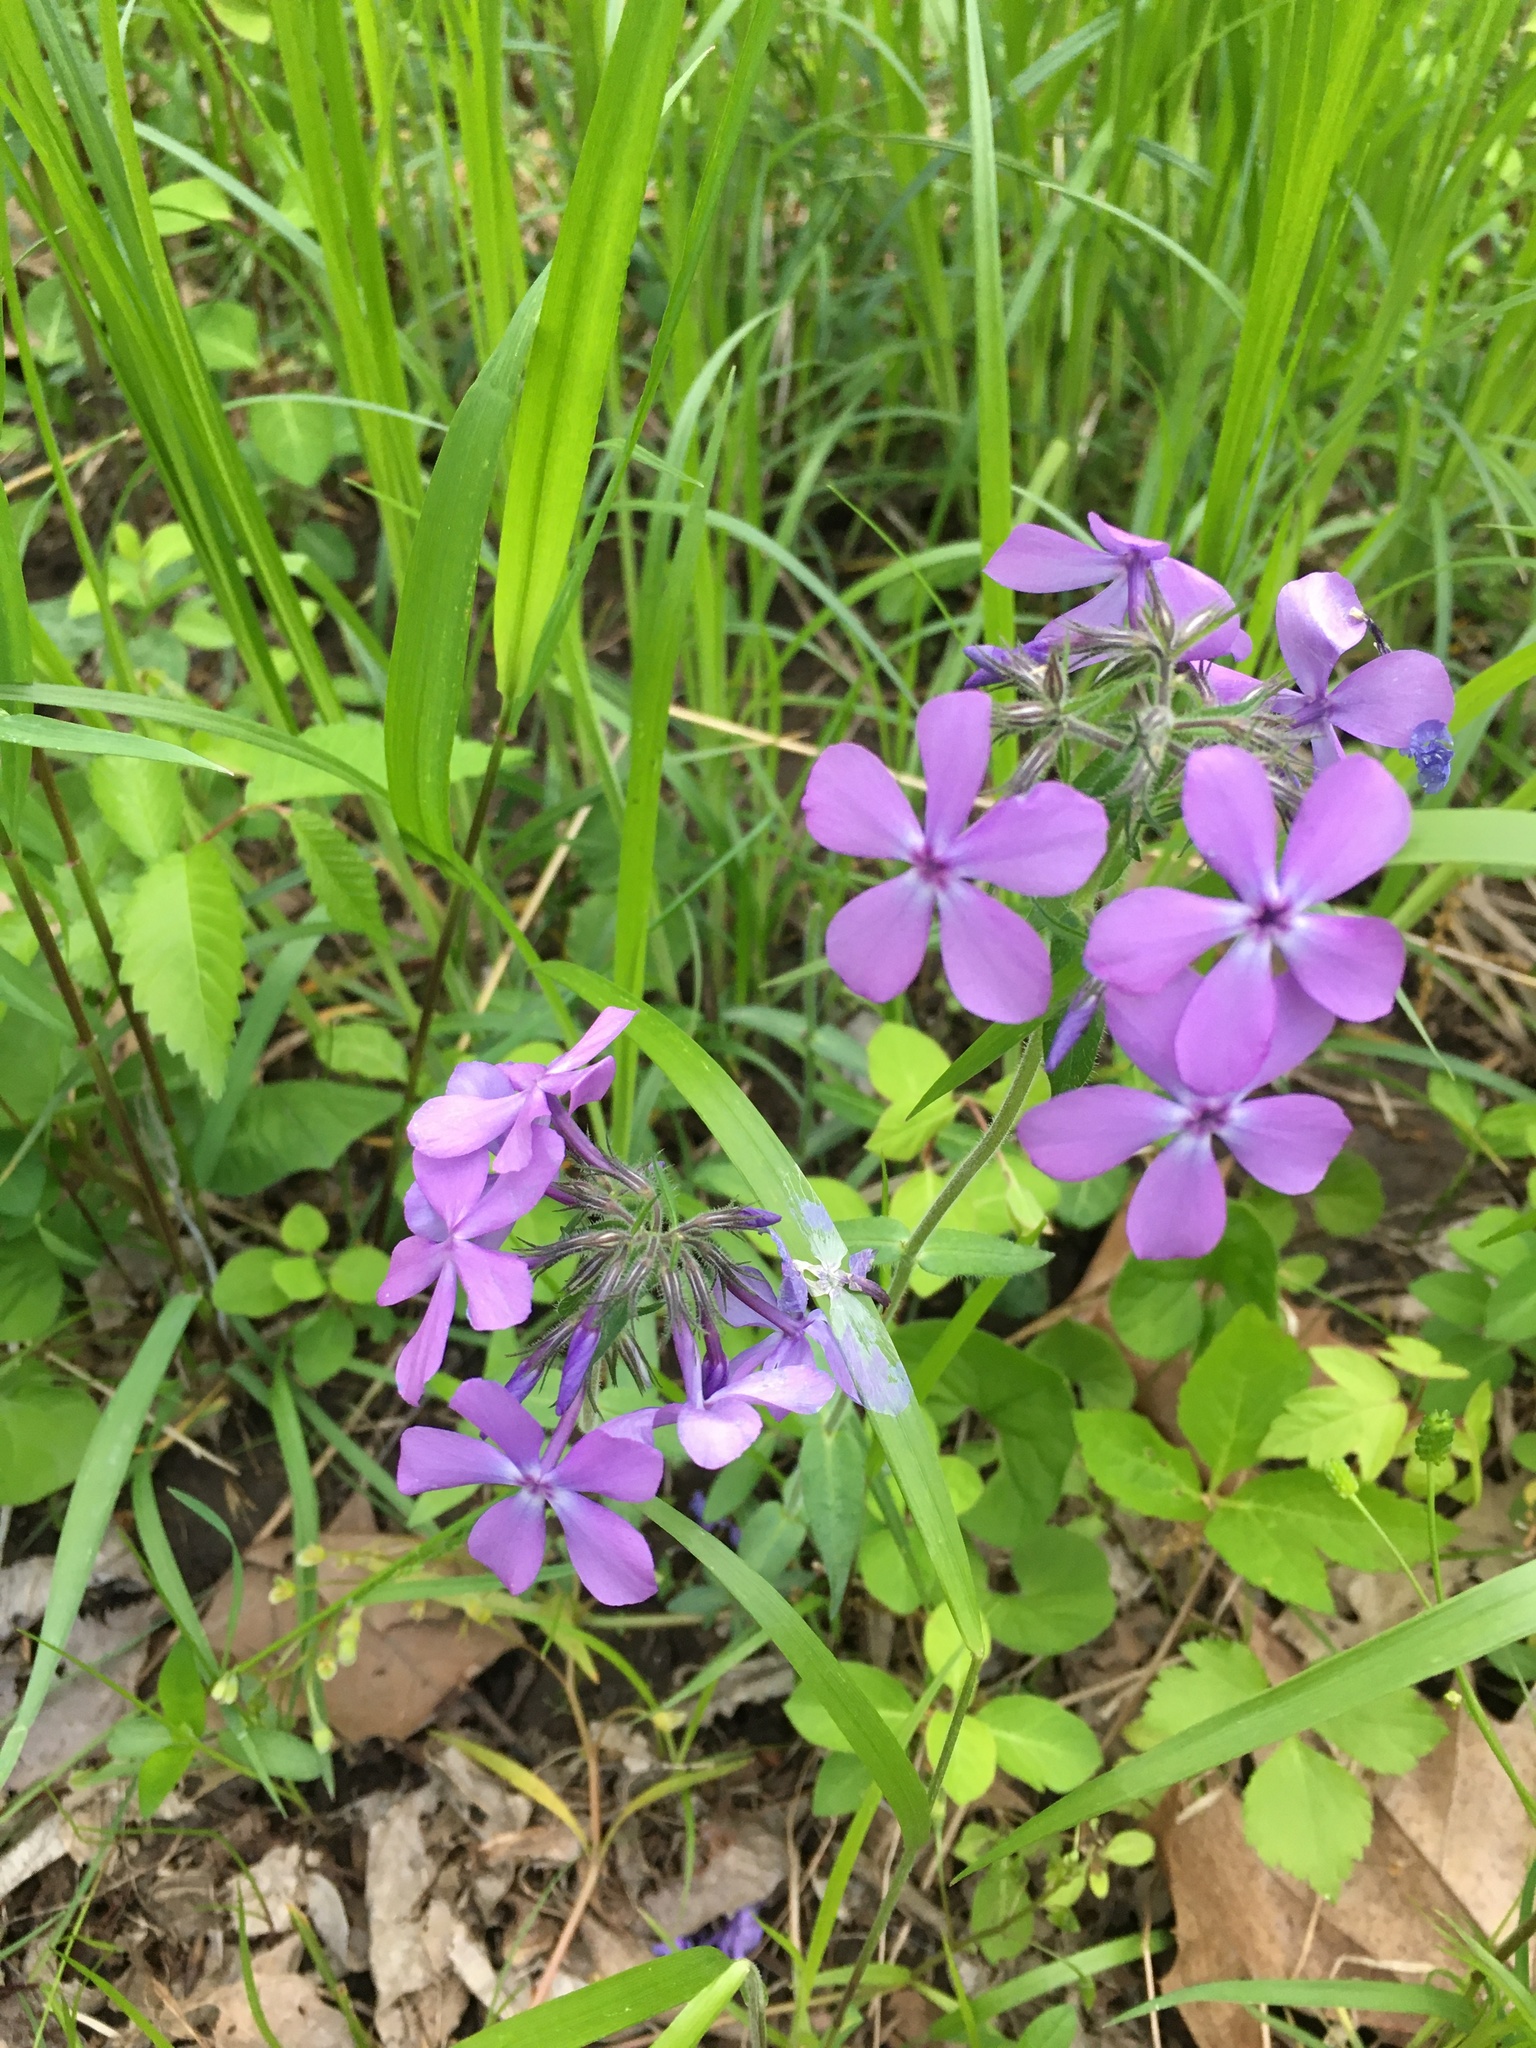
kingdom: Plantae
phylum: Tracheophyta
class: Magnoliopsida
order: Ericales
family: Polemoniaceae
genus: Phlox
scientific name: Phlox divaricata
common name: Blue phlox
